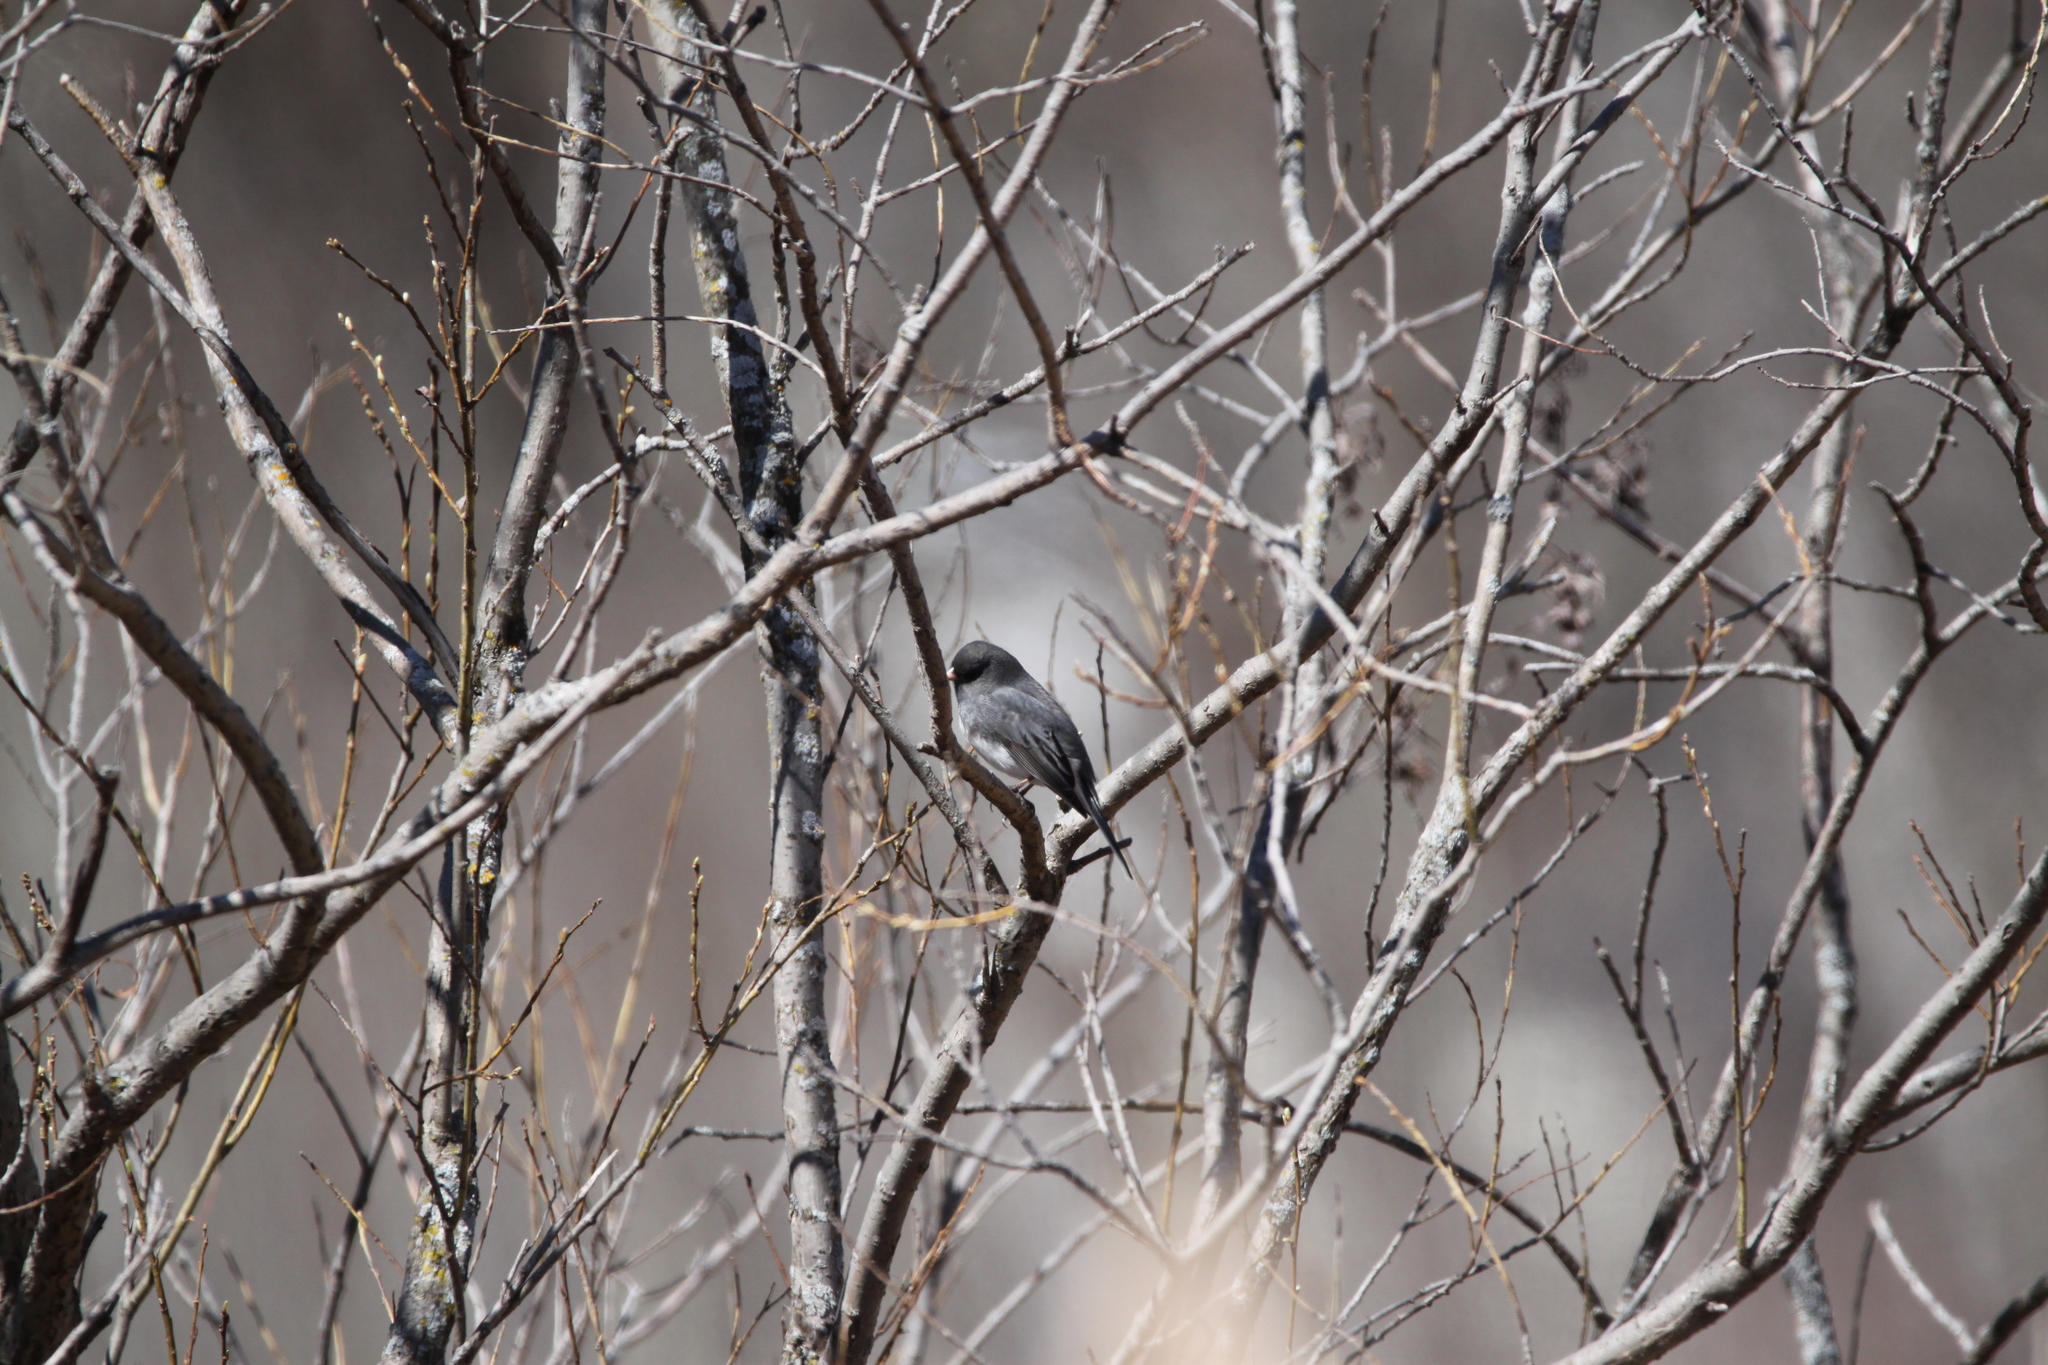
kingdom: Animalia
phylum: Chordata
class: Aves
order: Passeriformes
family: Passerellidae
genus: Junco
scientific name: Junco hyemalis
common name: Dark-eyed junco
